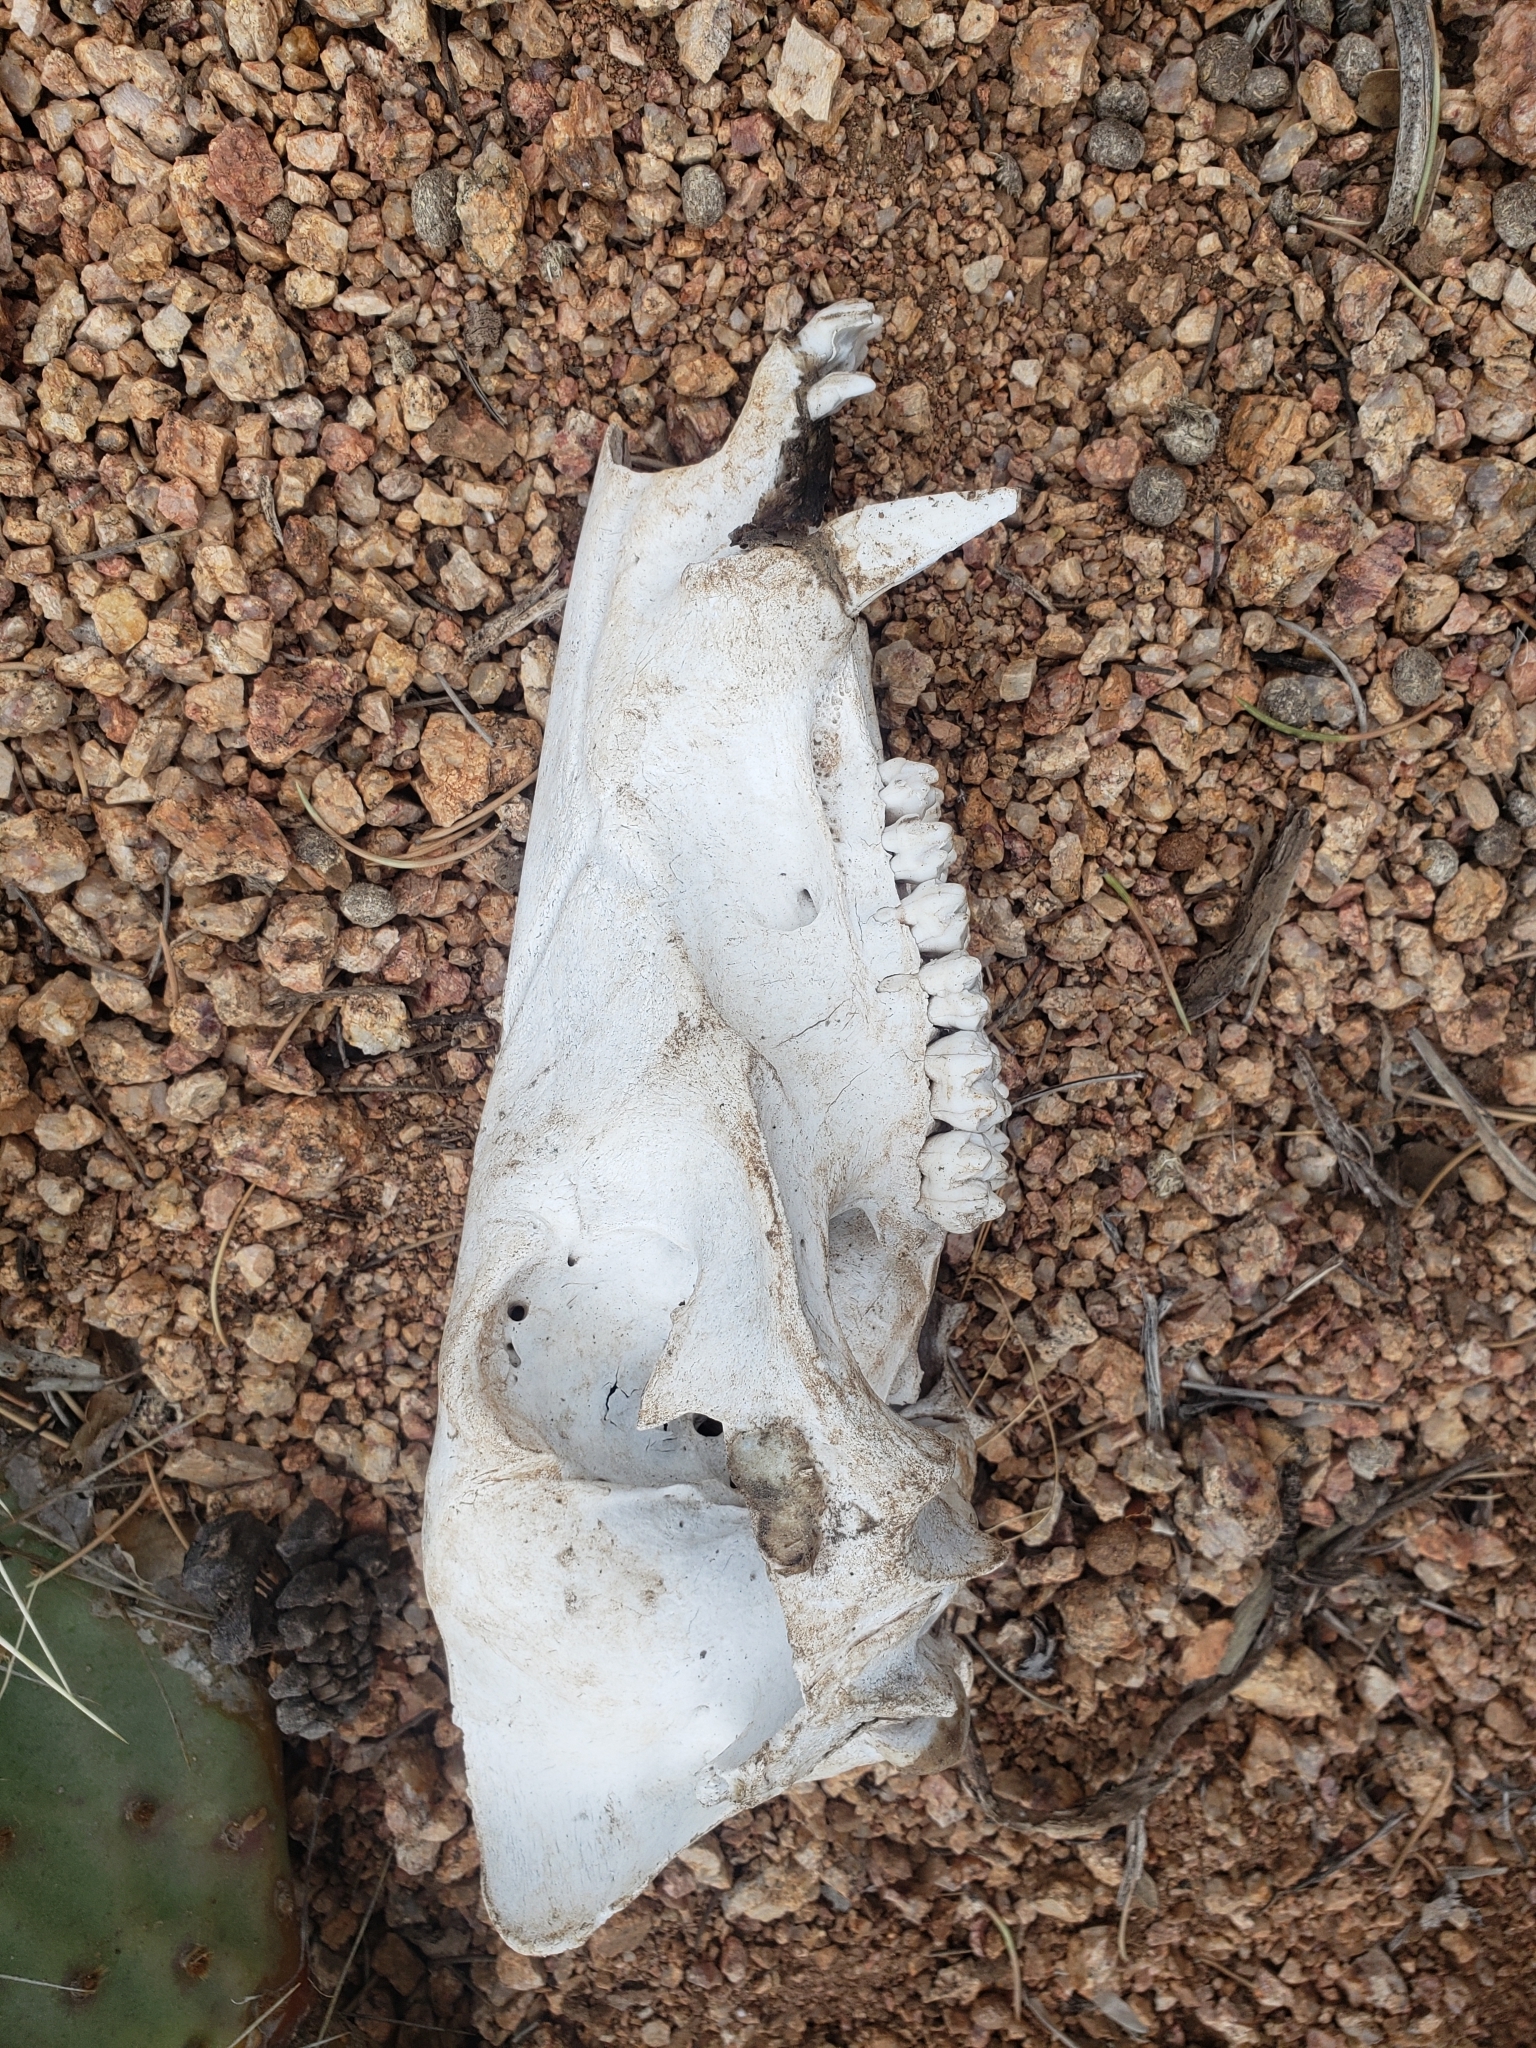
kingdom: Animalia
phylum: Chordata
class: Mammalia
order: Artiodactyla
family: Tayassuidae
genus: Pecari
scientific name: Pecari tajacu
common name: Collared peccary
